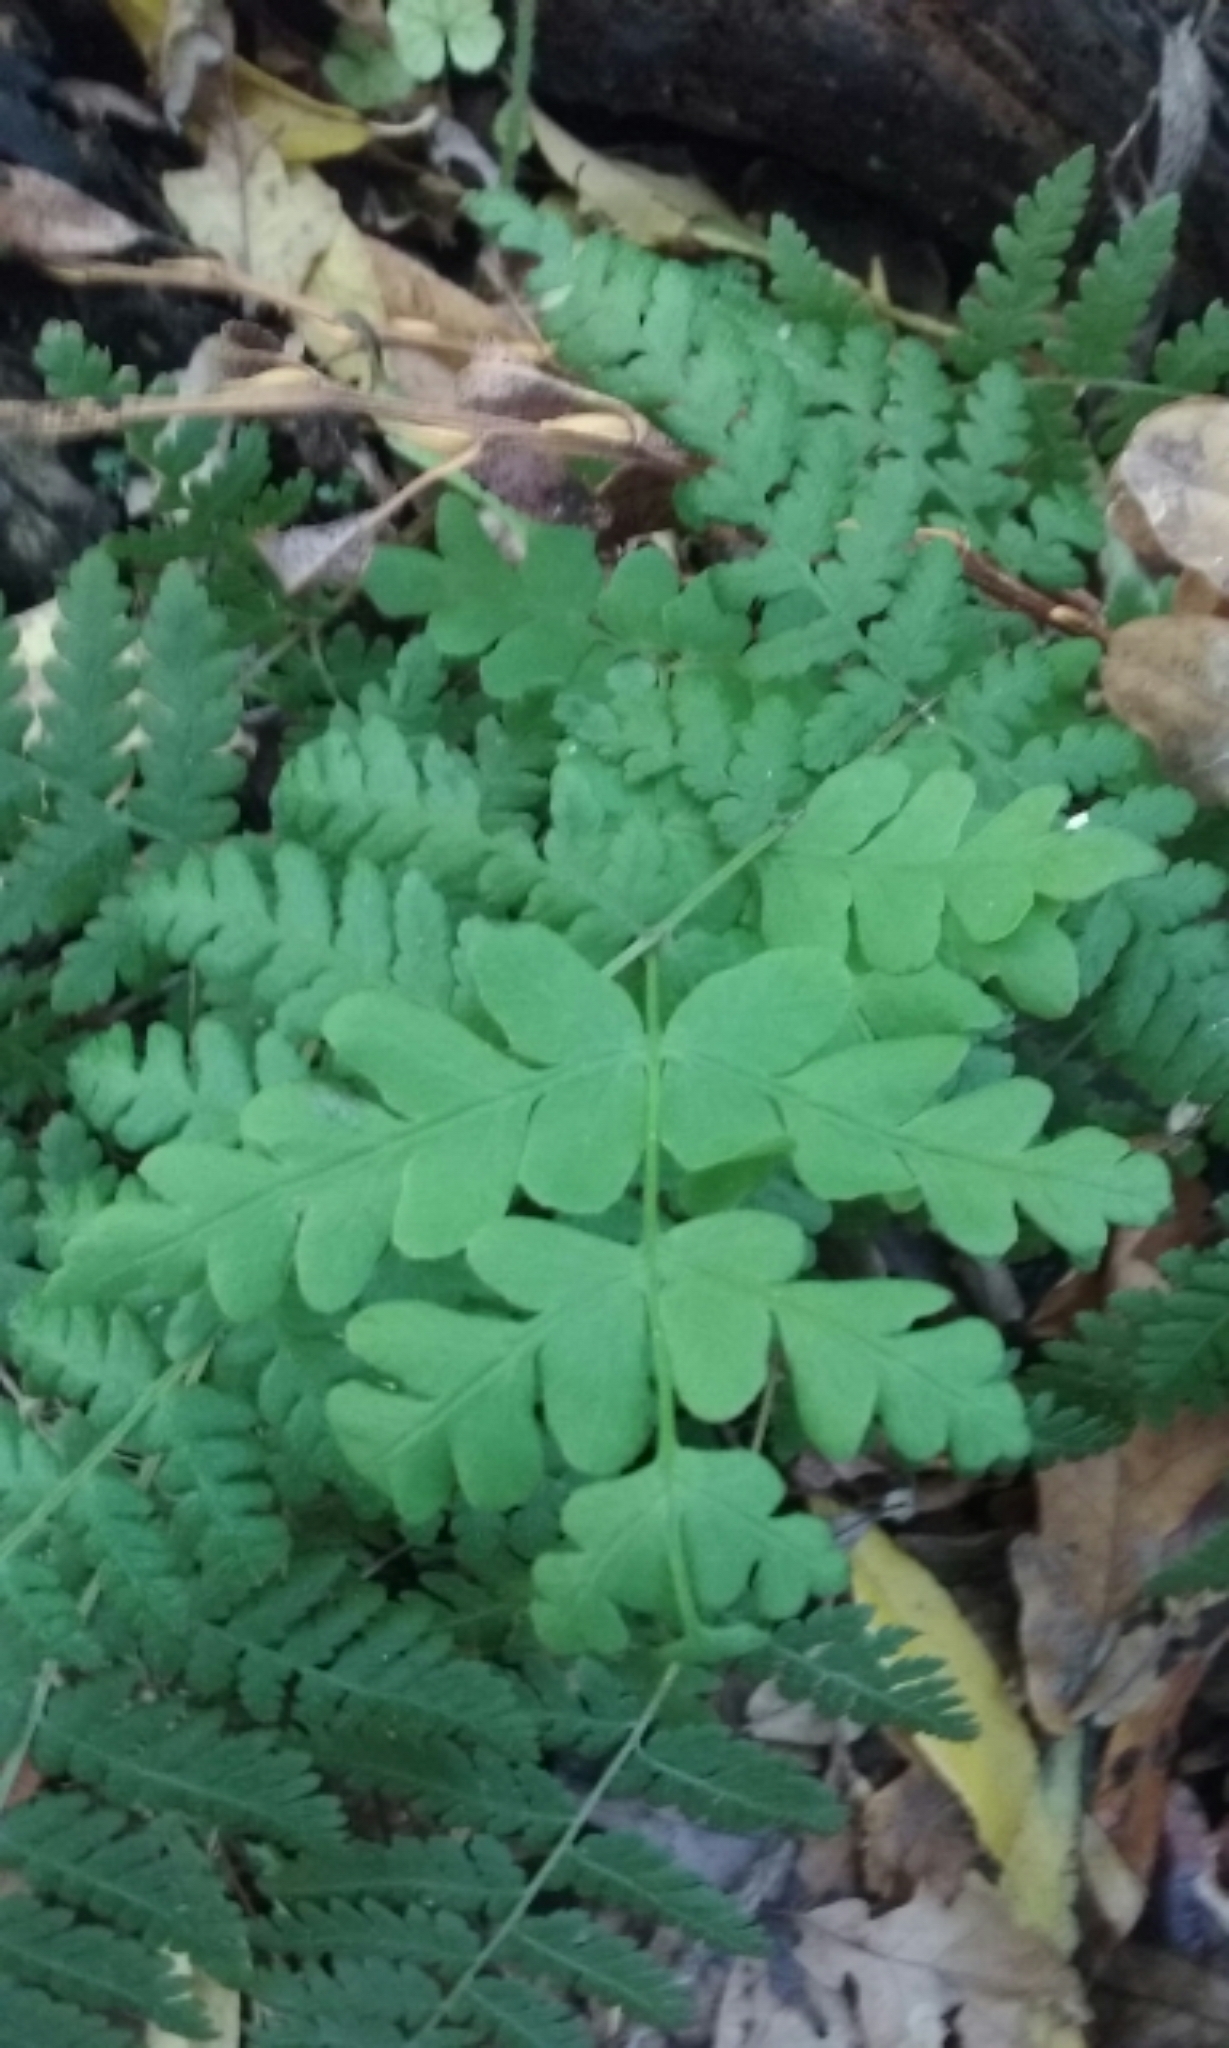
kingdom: Plantae
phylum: Tracheophyta
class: Polypodiopsida
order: Polypodiales
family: Dennstaedtiaceae
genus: Histiopteris
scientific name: Histiopteris incisa
